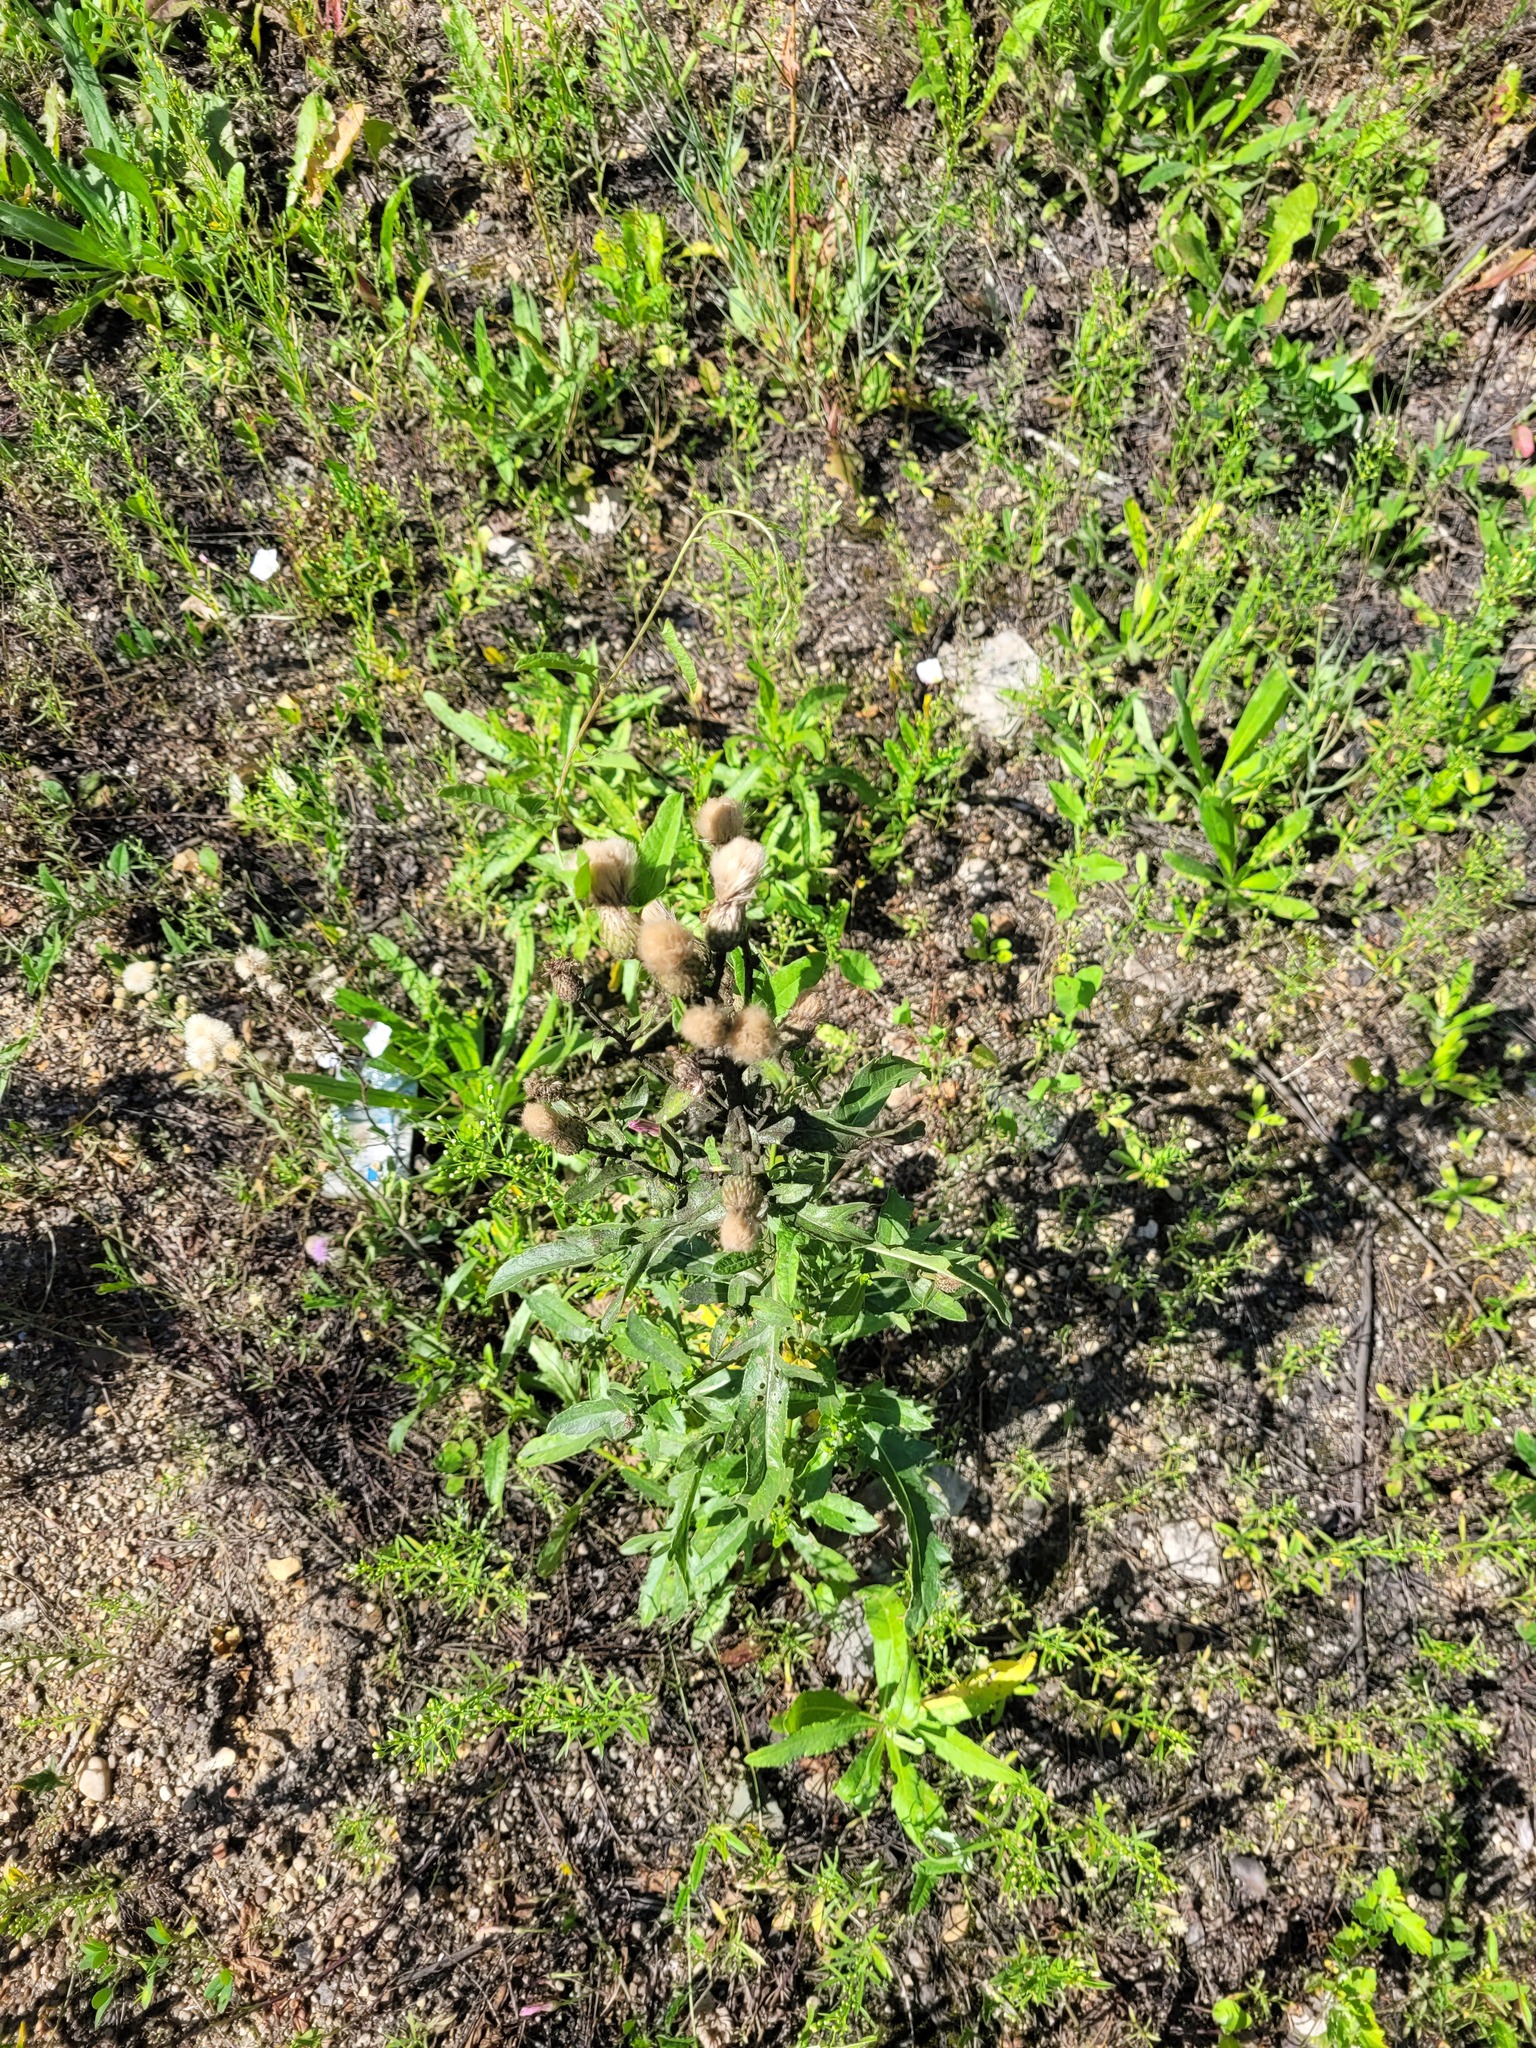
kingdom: Plantae
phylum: Tracheophyta
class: Magnoliopsida
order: Asterales
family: Asteraceae
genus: Cirsium
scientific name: Cirsium arvense
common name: Creeping thistle
